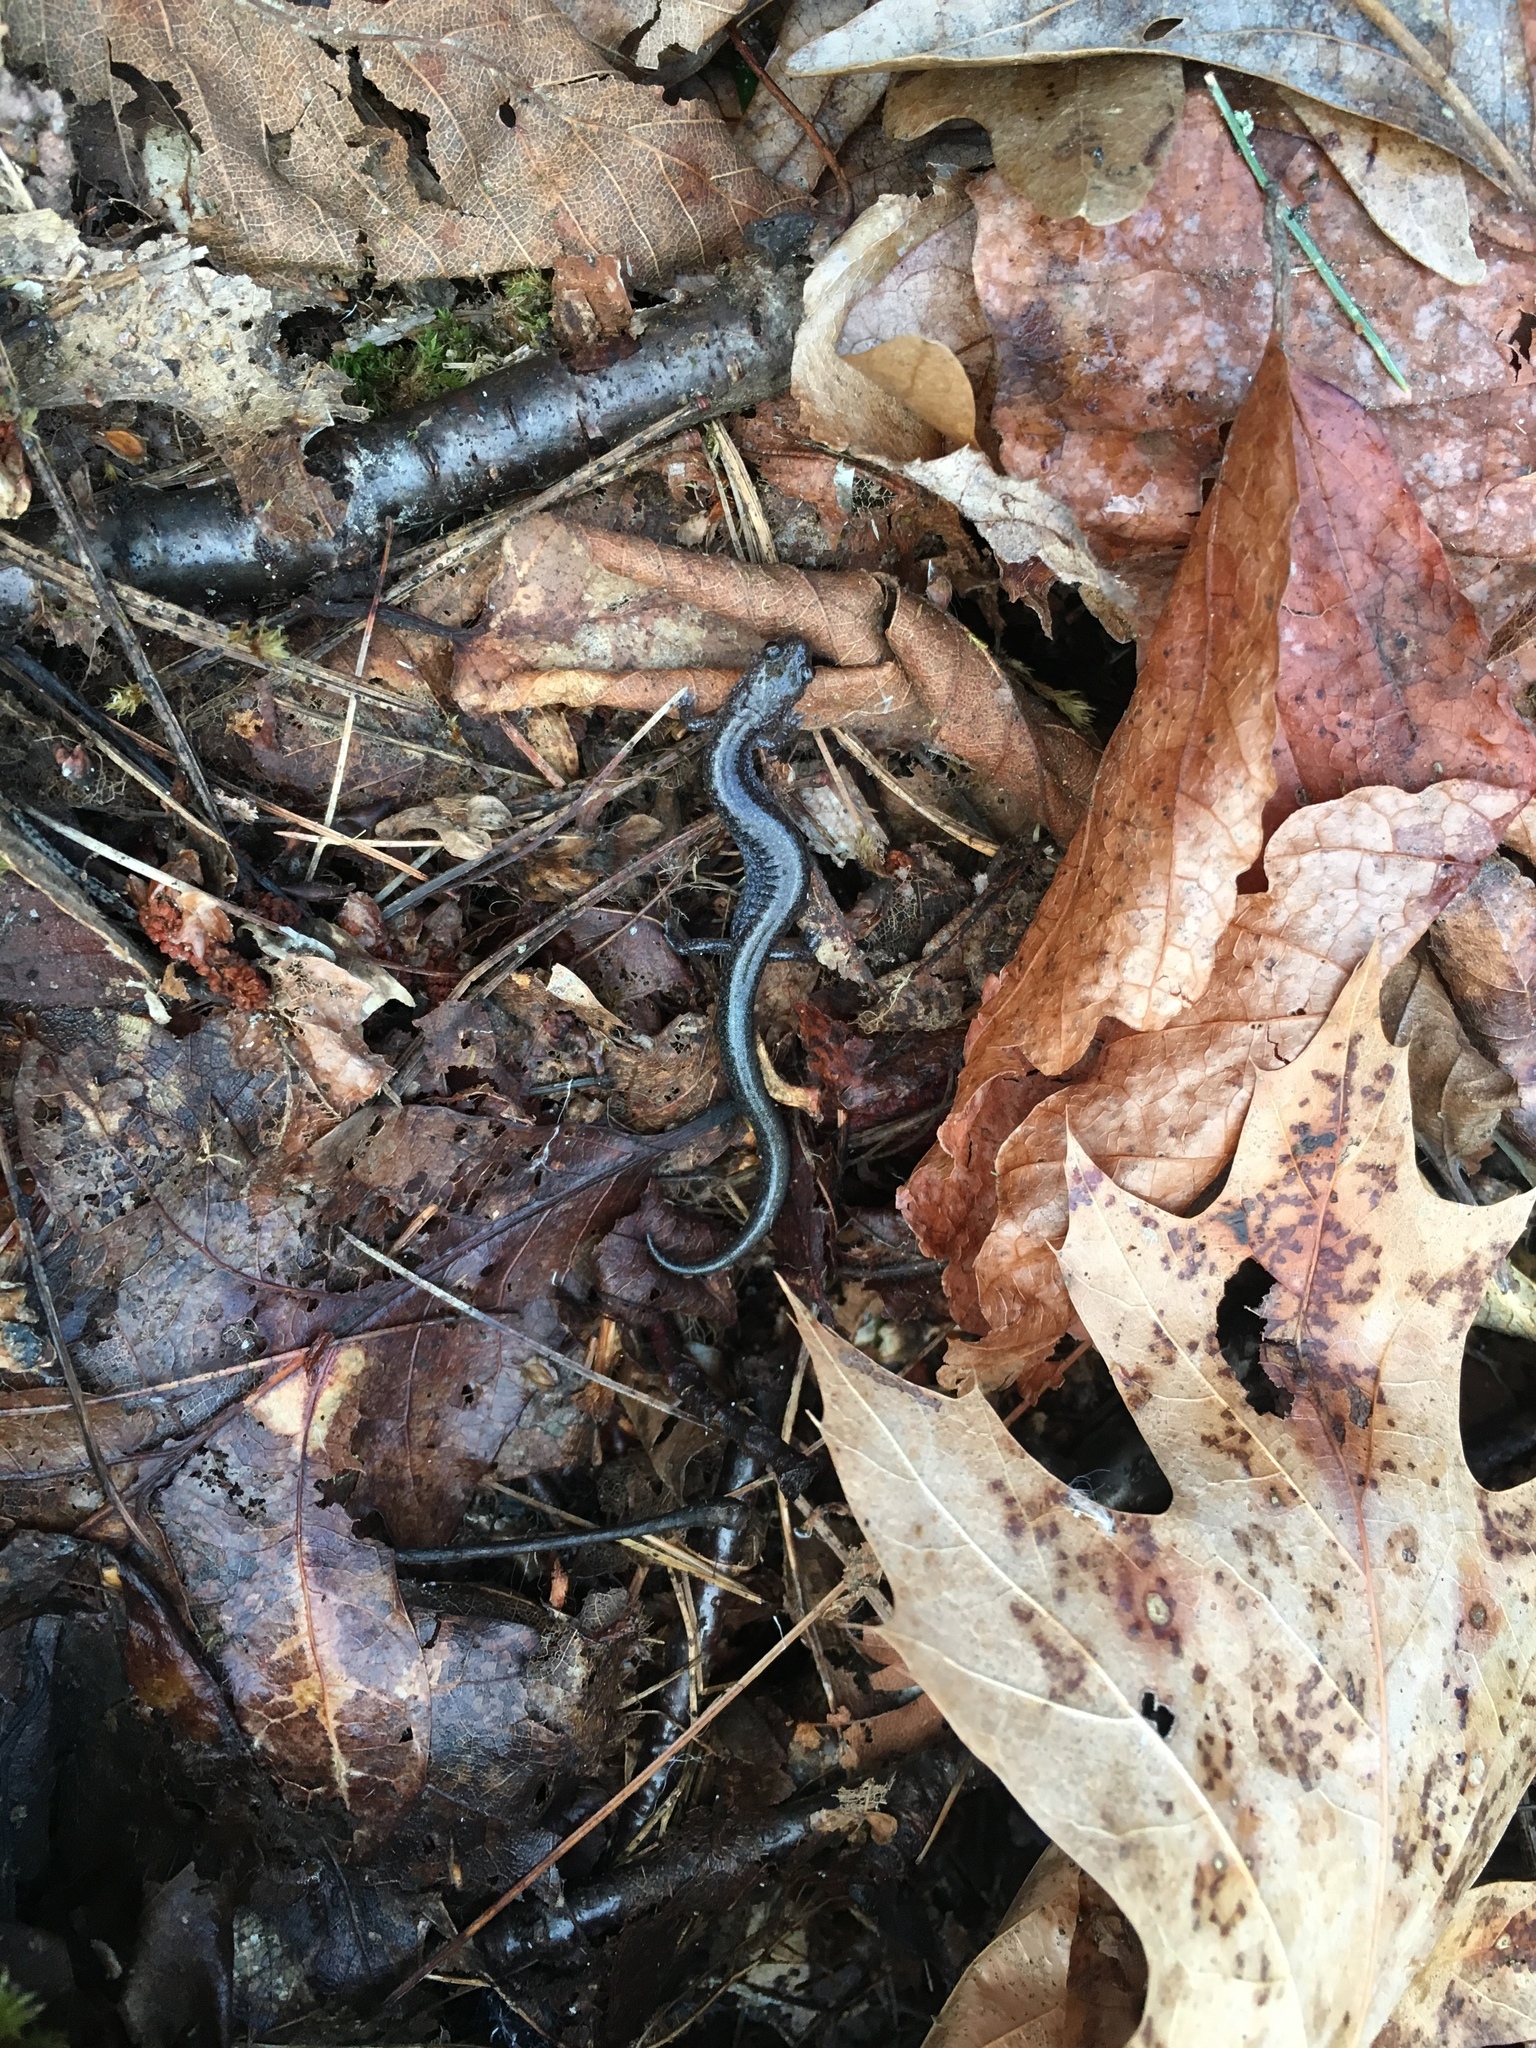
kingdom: Animalia
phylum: Chordata
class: Amphibia
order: Caudata
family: Plethodontidae
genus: Plethodon
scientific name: Plethodon cinereus
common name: Redback salamander
